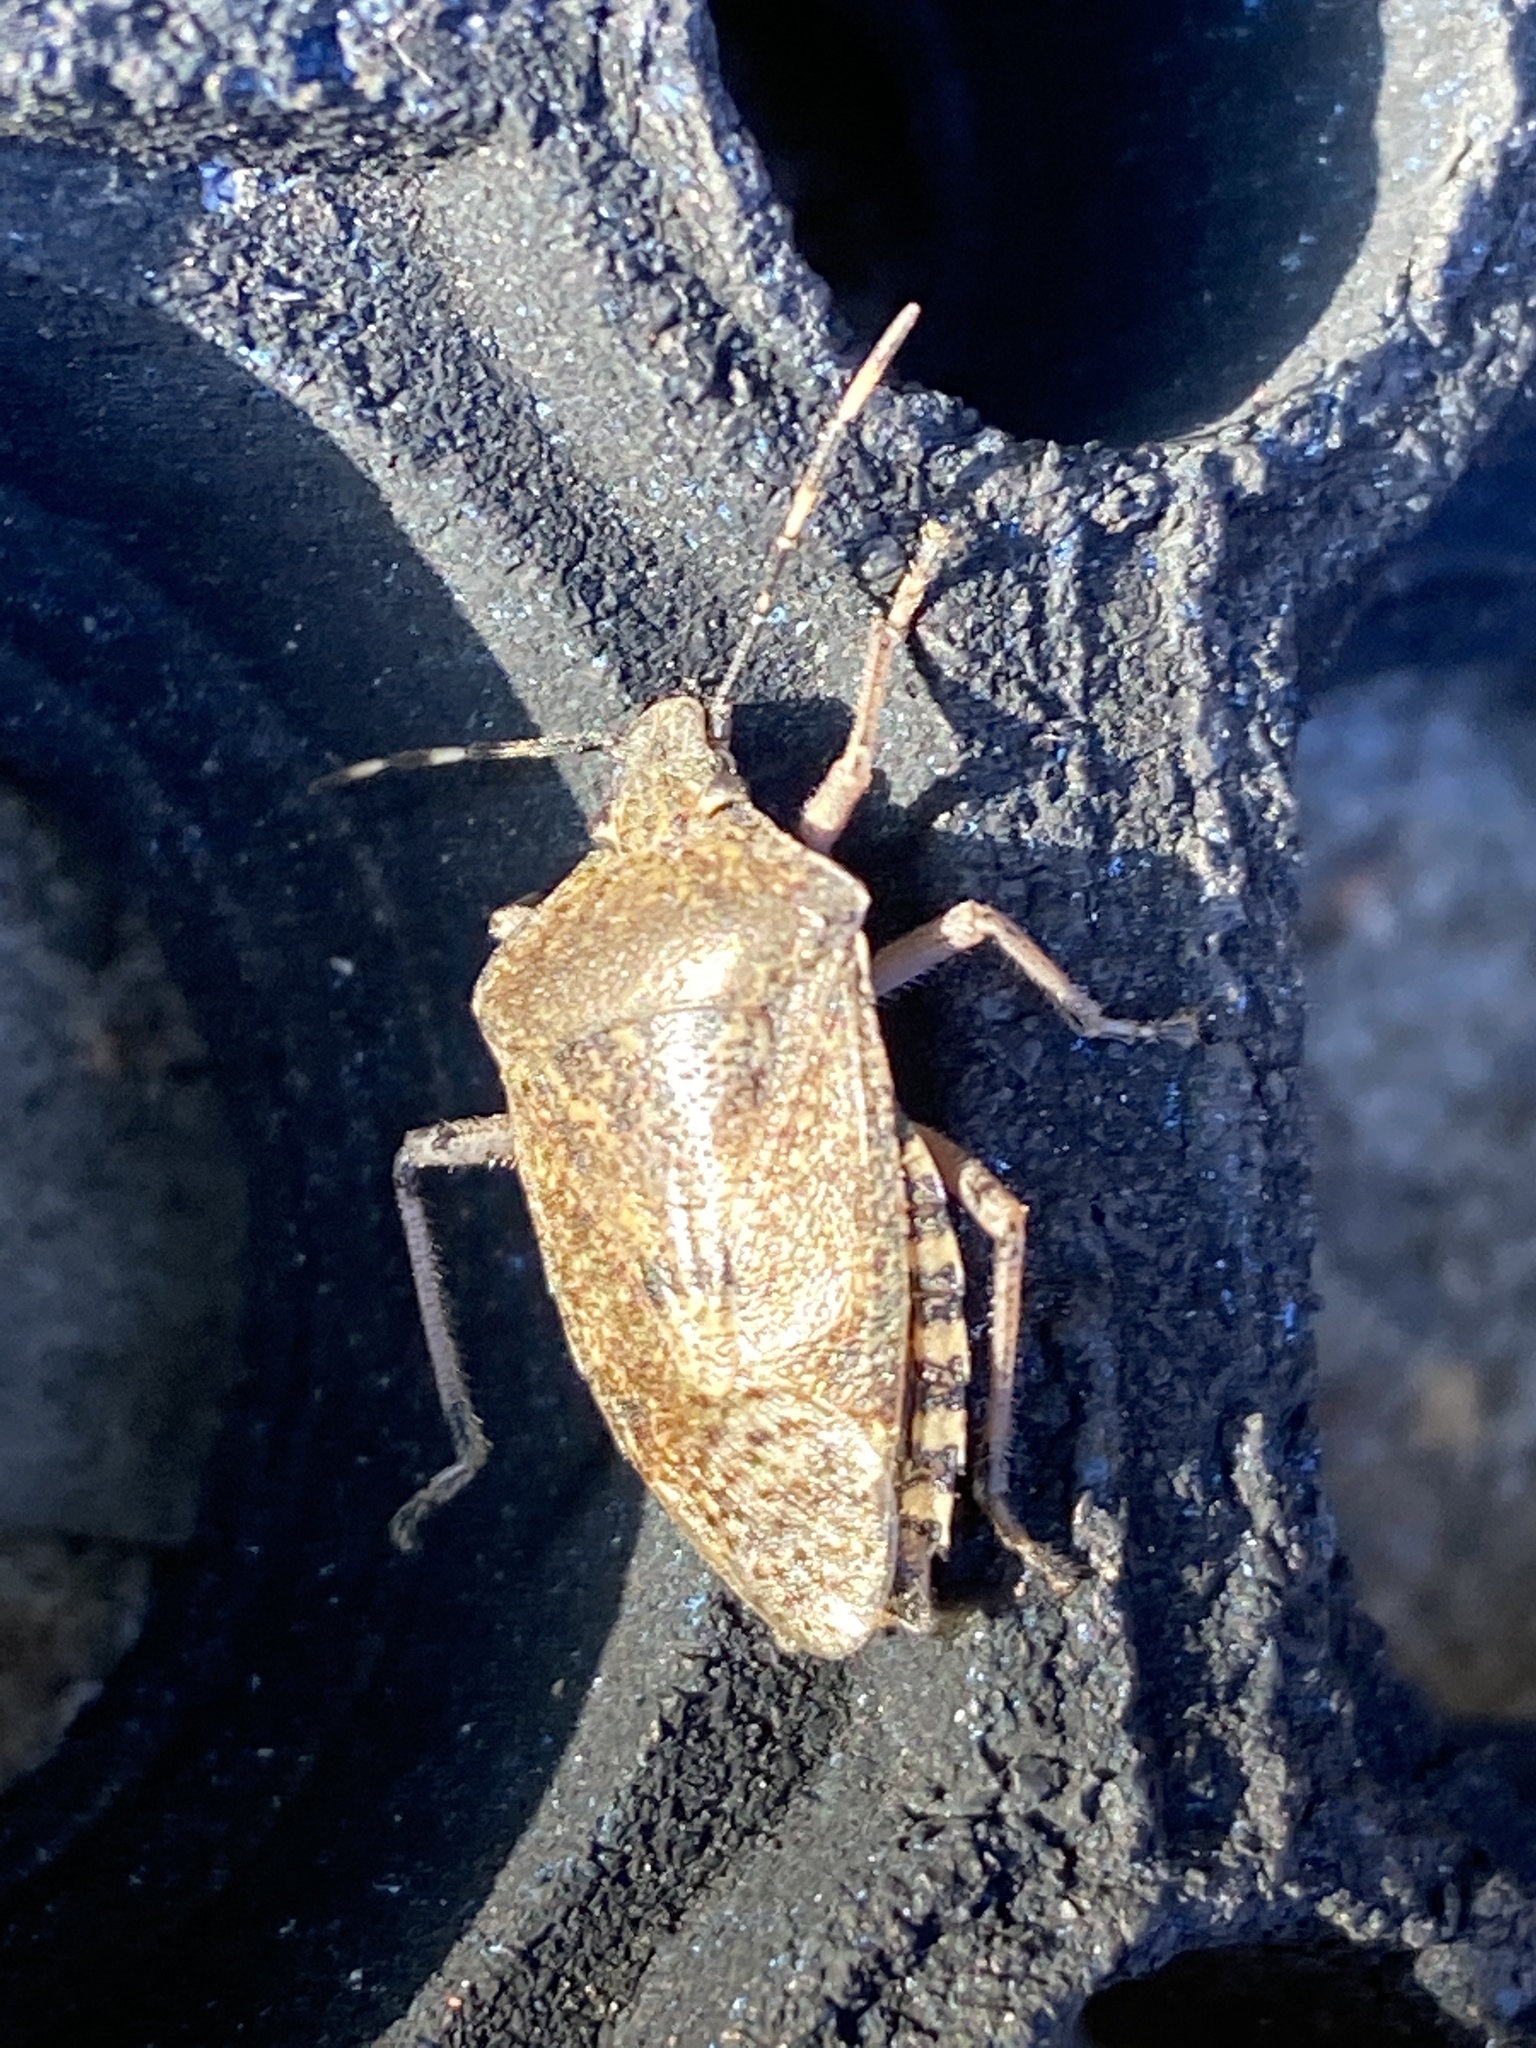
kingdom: Animalia
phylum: Arthropoda
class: Insecta
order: Hemiptera
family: Pentatomidae
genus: Rhaphigaster
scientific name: Rhaphigaster nebulosa
